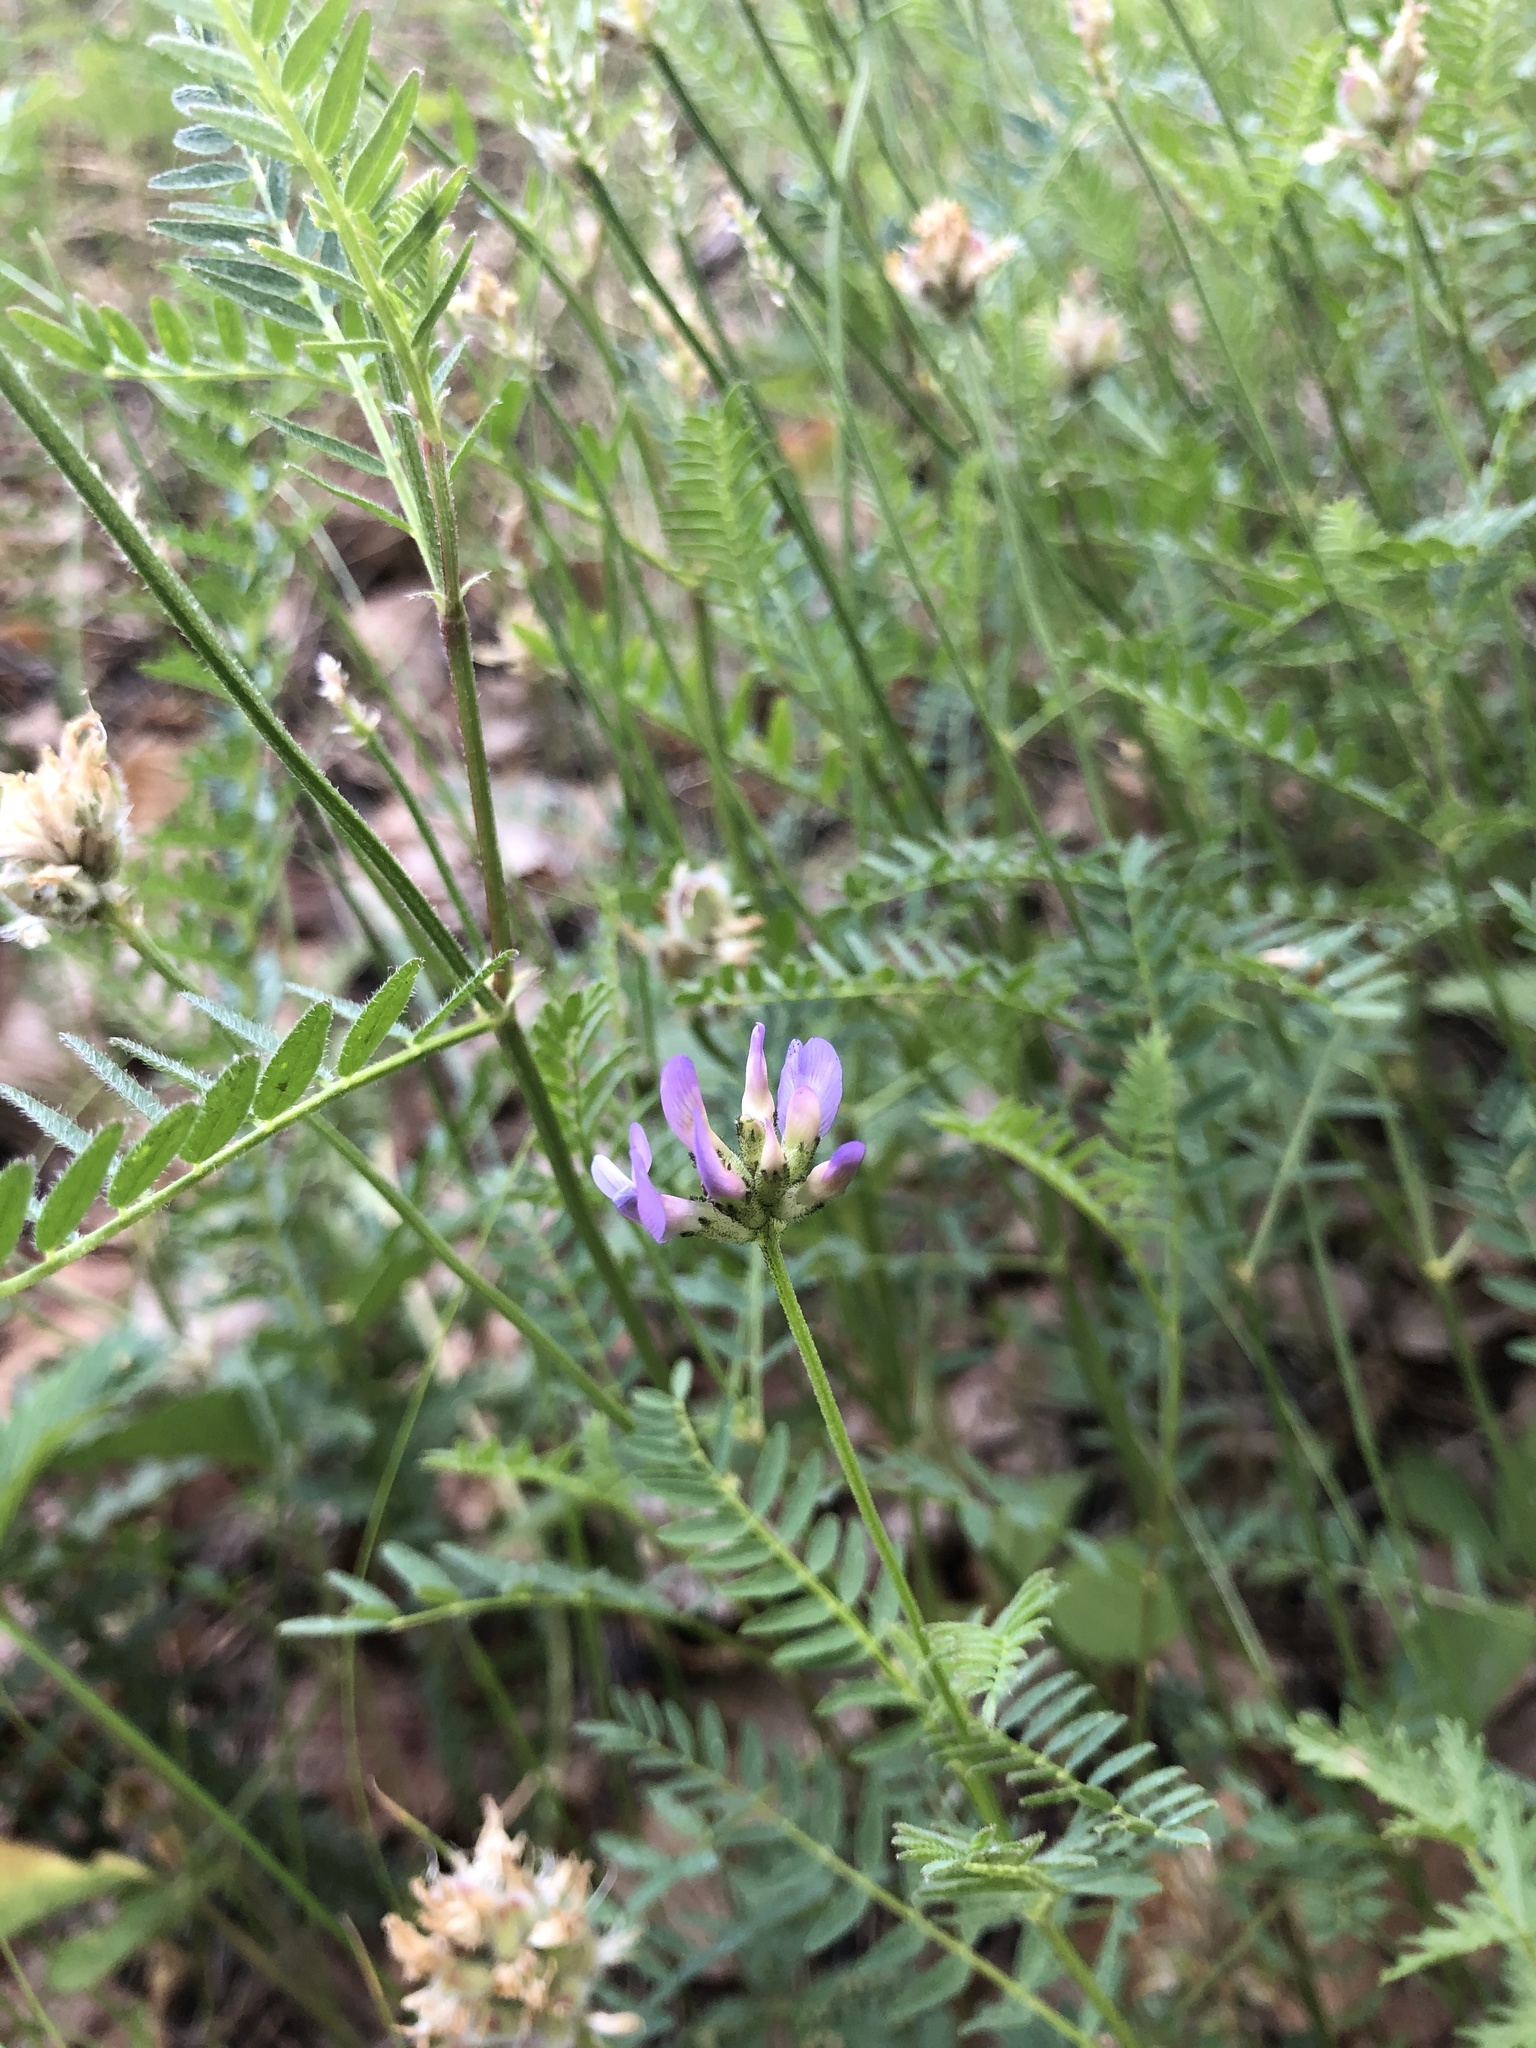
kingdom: Plantae
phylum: Tracheophyta
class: Magnoliopsida
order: Fabales
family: Fabaceae
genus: Astragalus
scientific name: Astragalus danicus
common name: Purple milk-vetch
